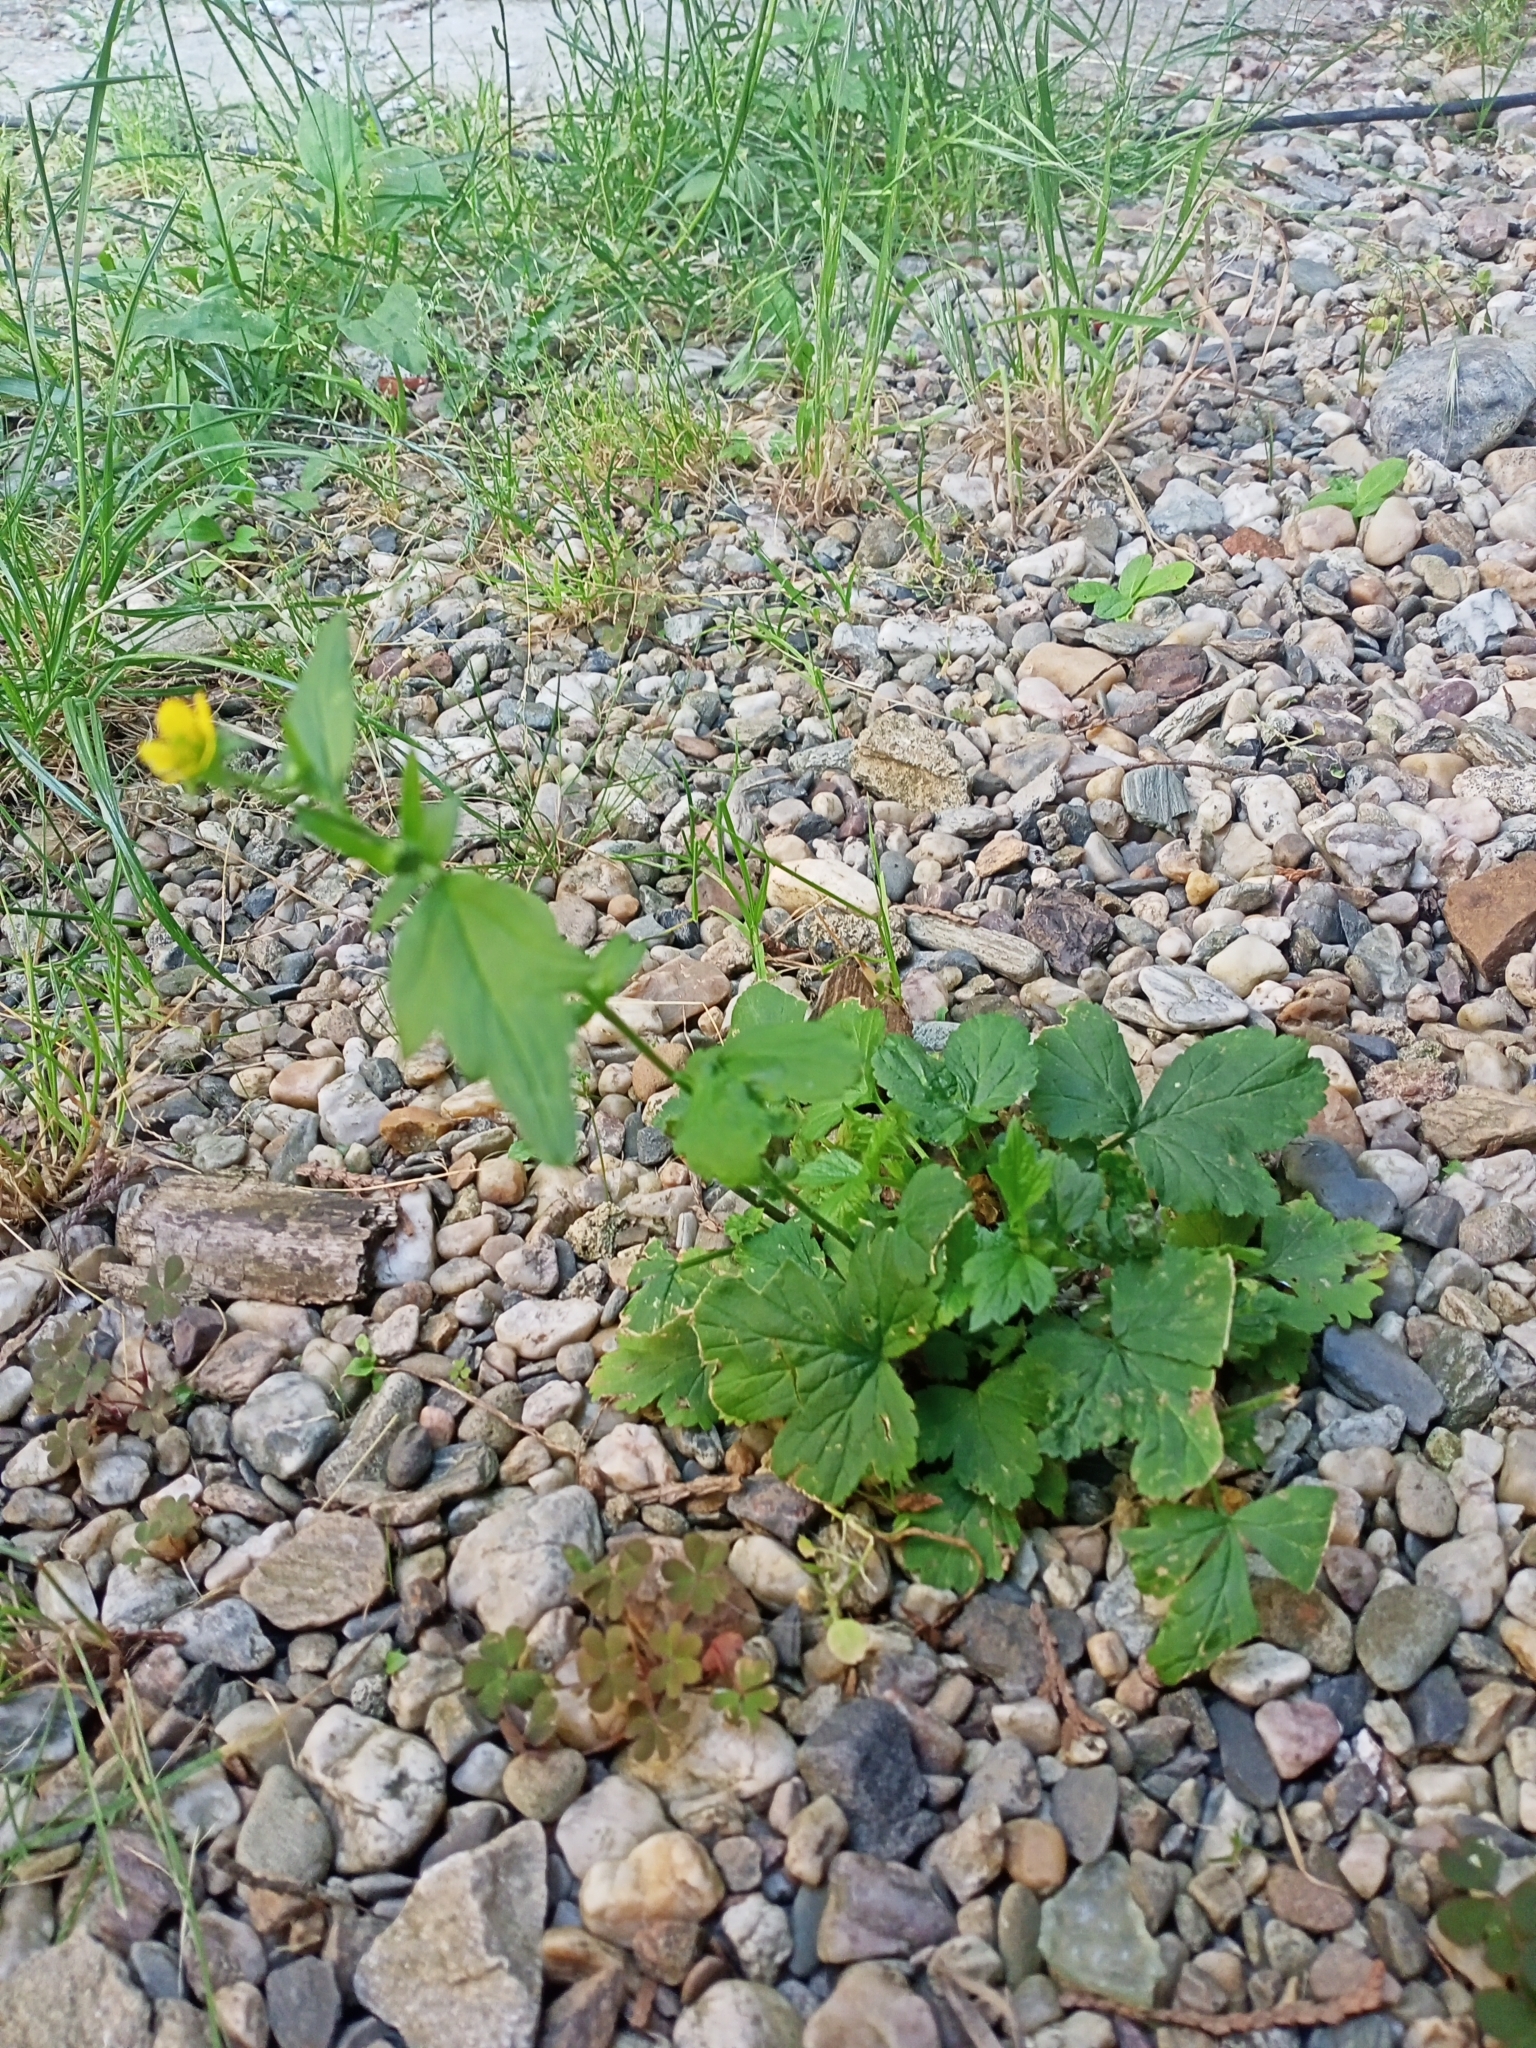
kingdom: Plantae
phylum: Tracheophyta
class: Magnoliopsida
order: Rosales
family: Rosaceae
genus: Geum
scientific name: Geum urbanum
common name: Wood avens
